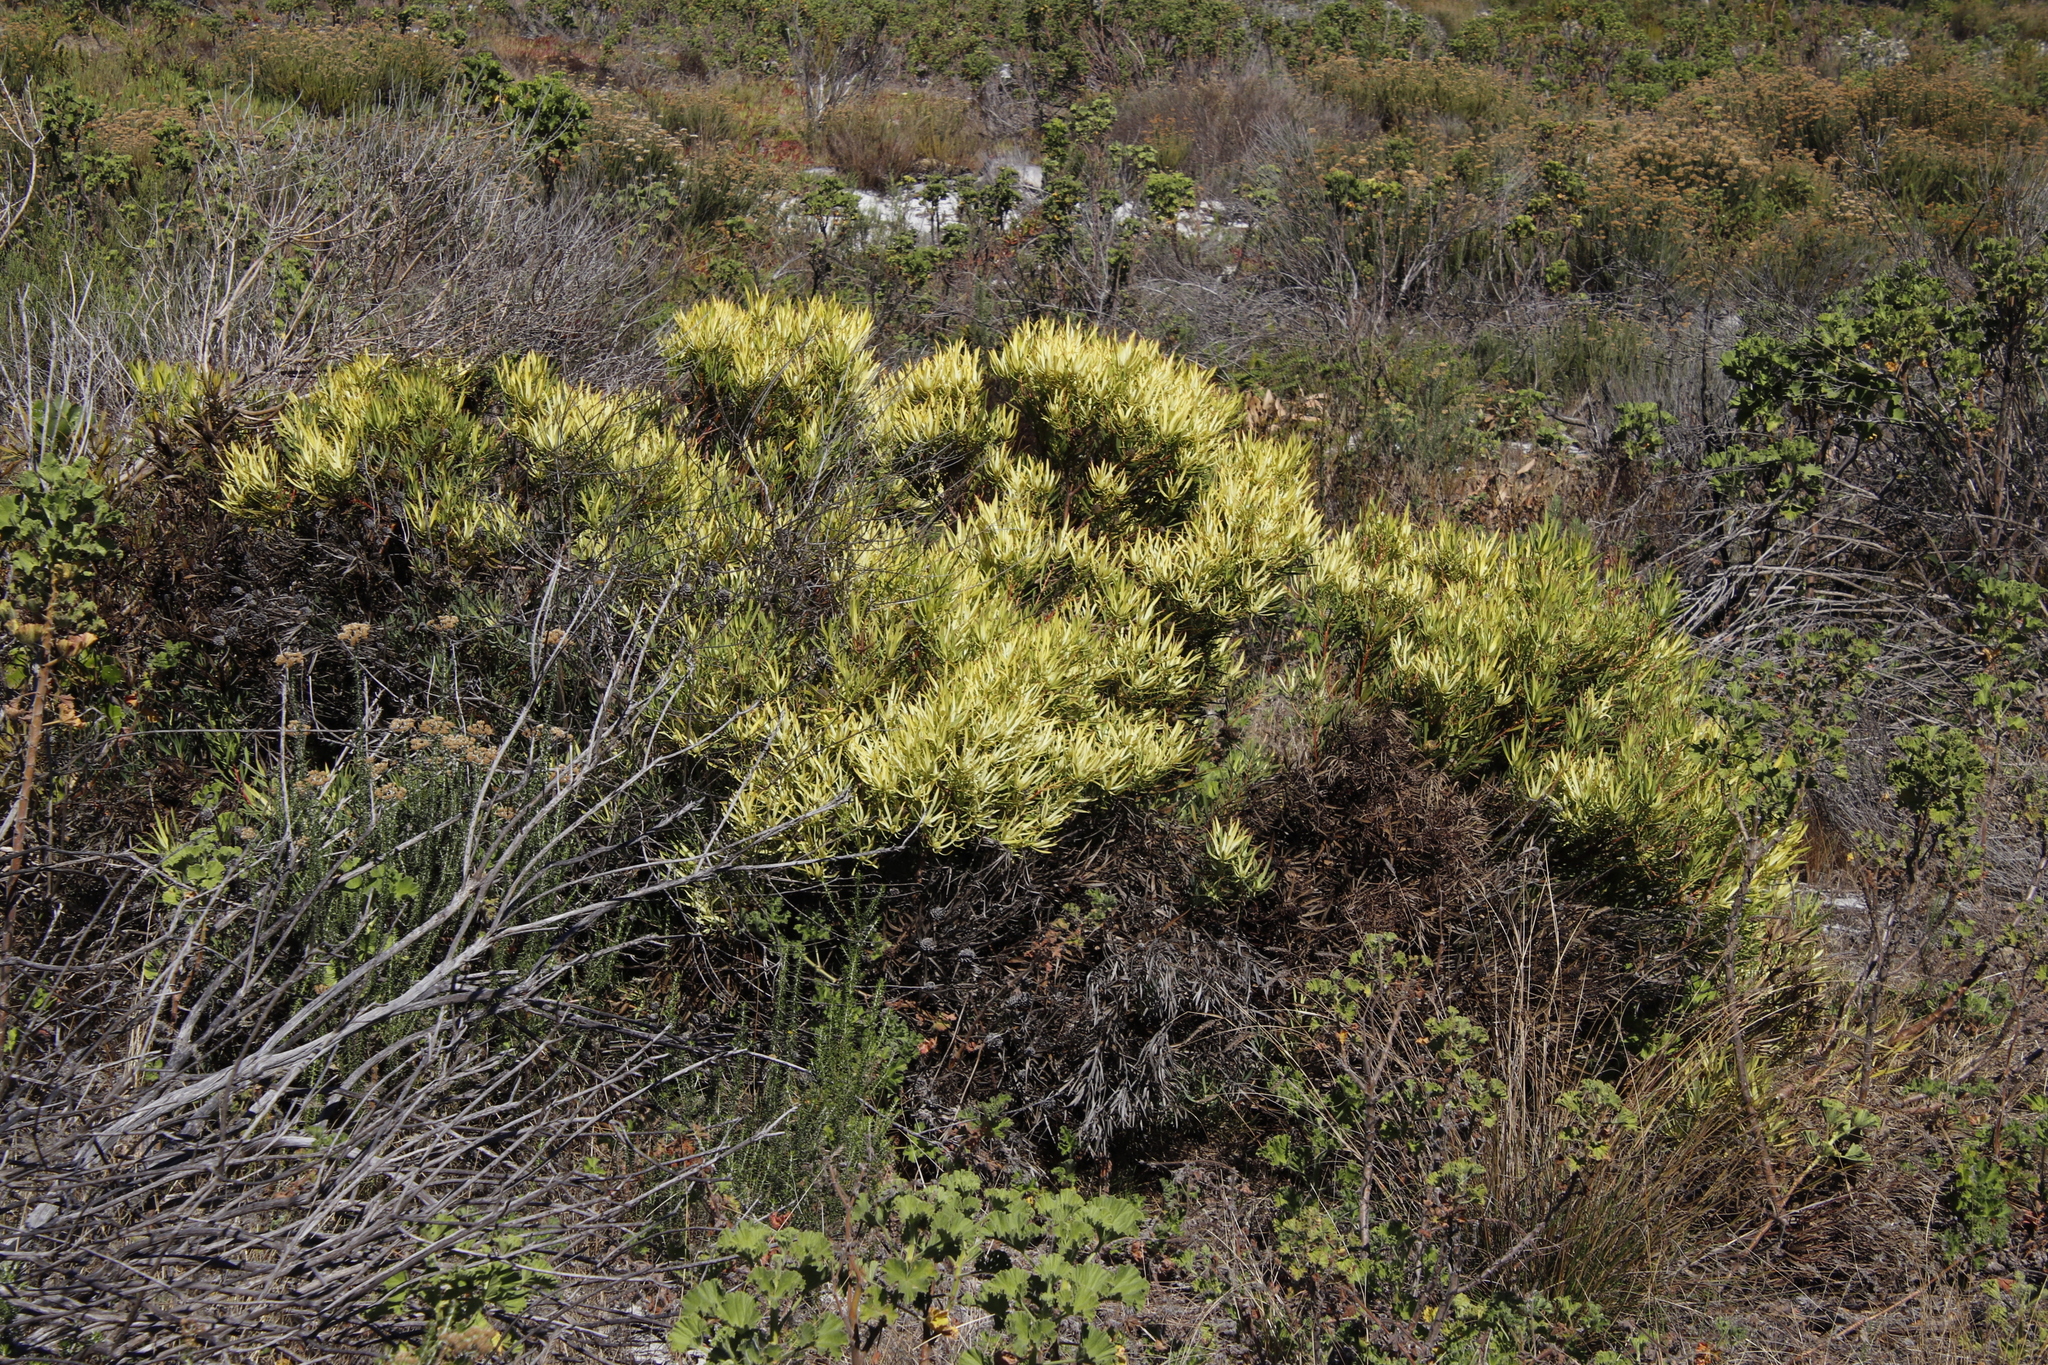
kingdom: Plantae
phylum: Tracheophyta
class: Magnoliopsida
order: Proteales
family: Proteaceae
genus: Leucadendron
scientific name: Leucadendron salignum
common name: Common sunshine conebush
